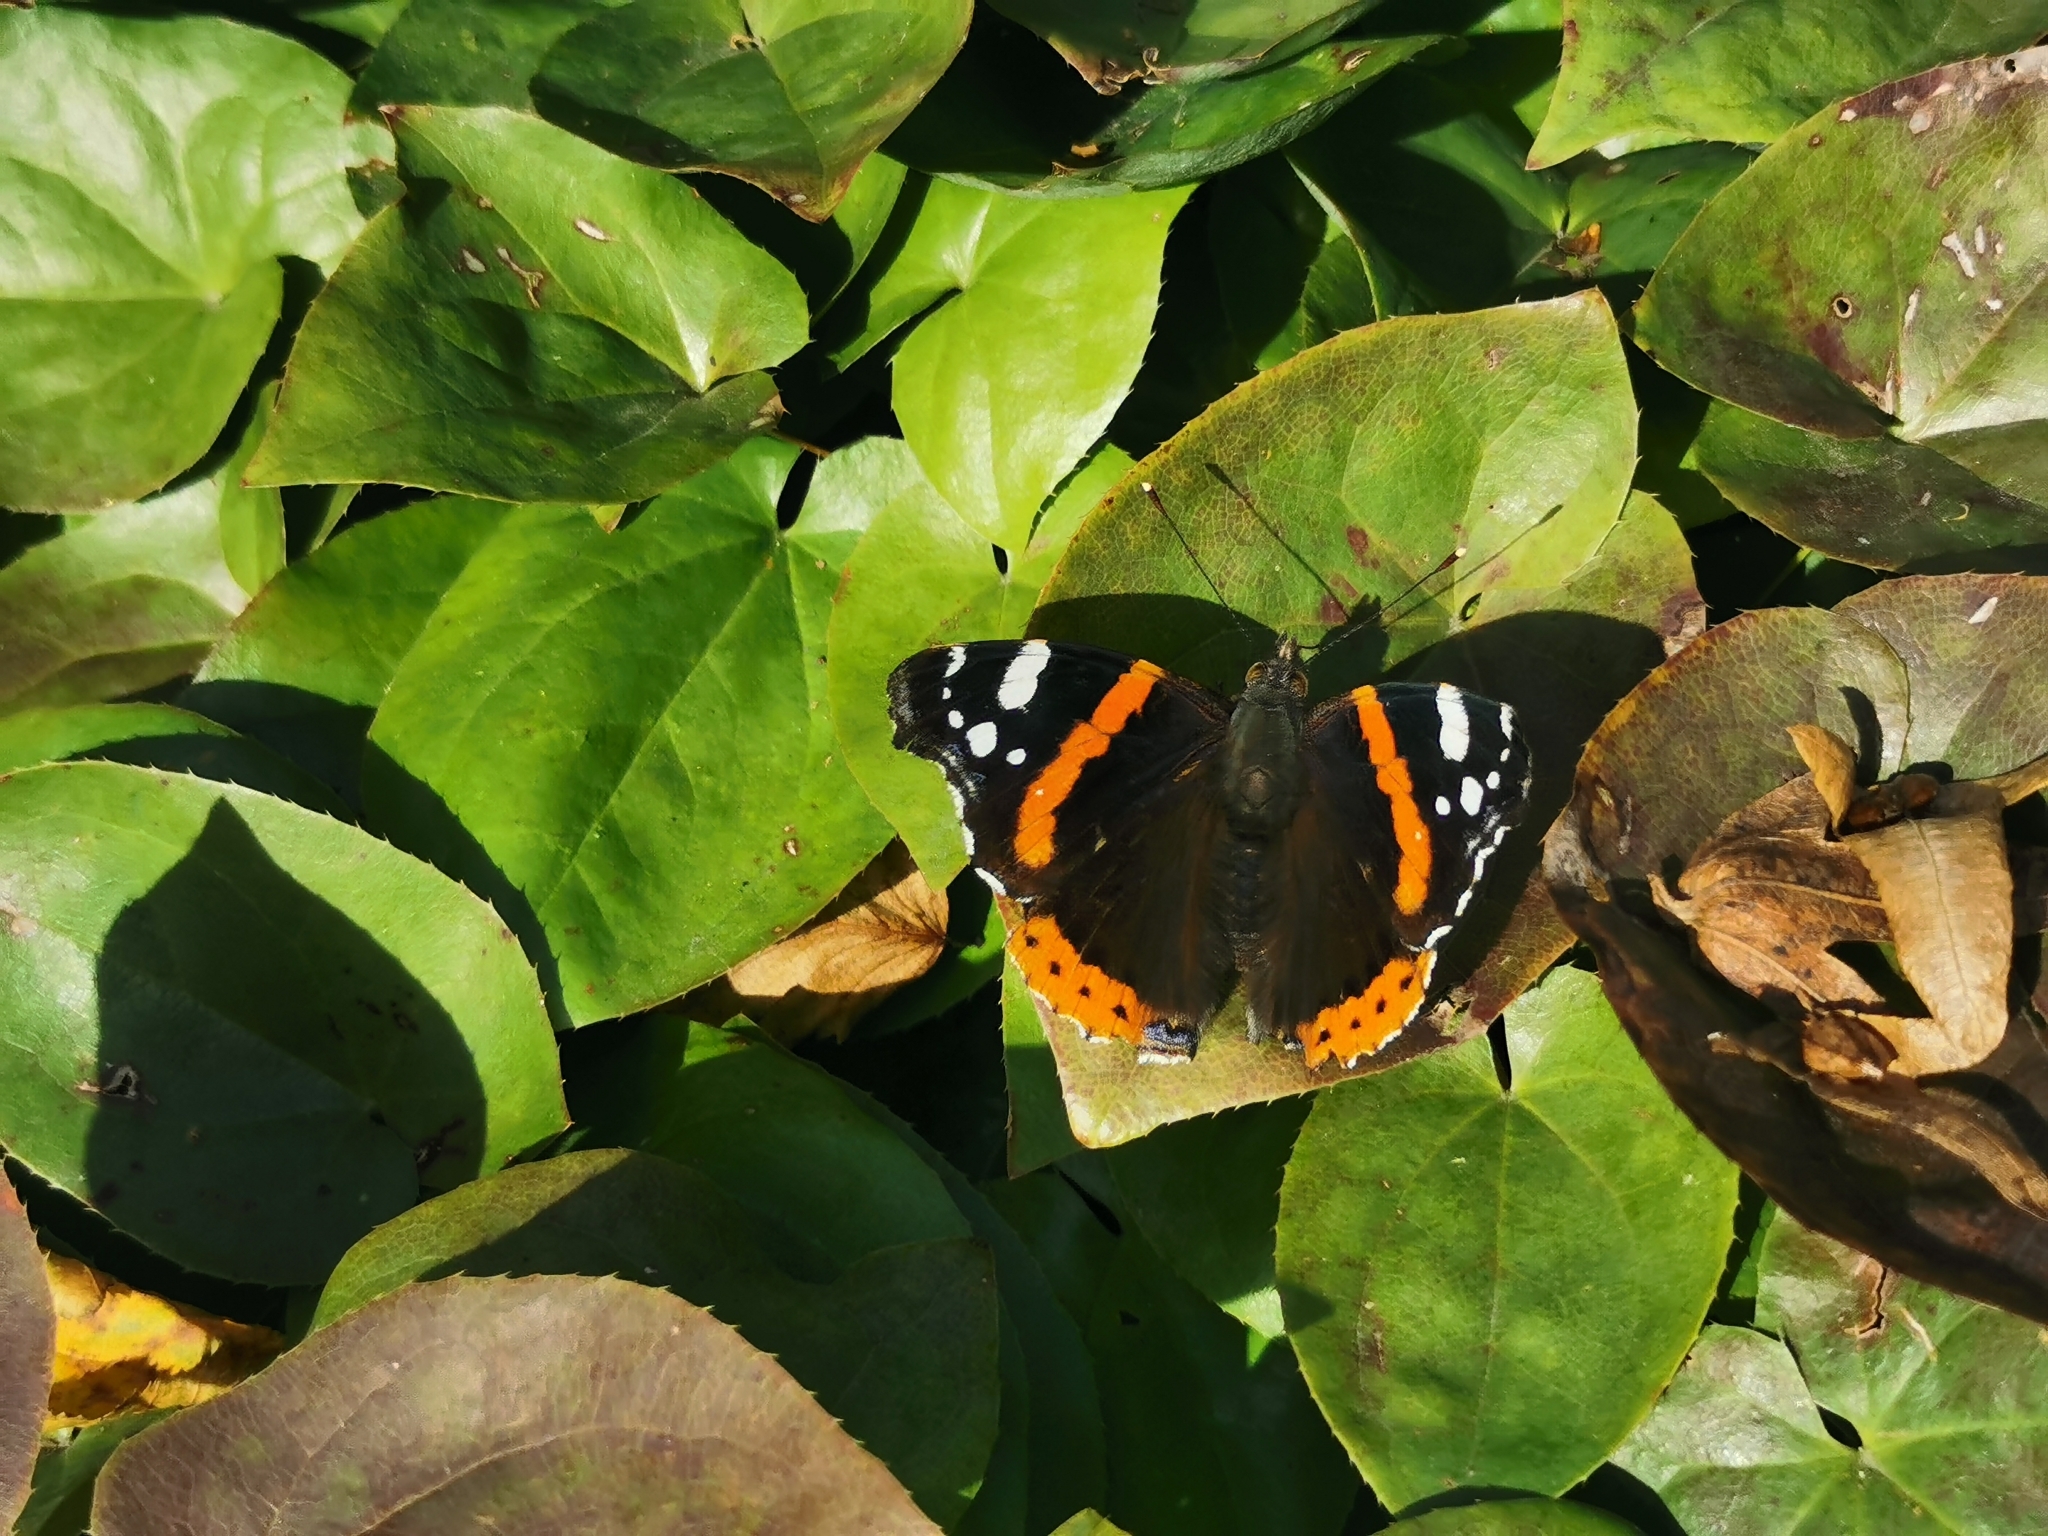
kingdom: Animalia
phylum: Arthropoda
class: Insecta
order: Lepidoptera
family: Nymphalidae
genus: Vanessa
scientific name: Vanessa atalanta
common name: Red admiral
